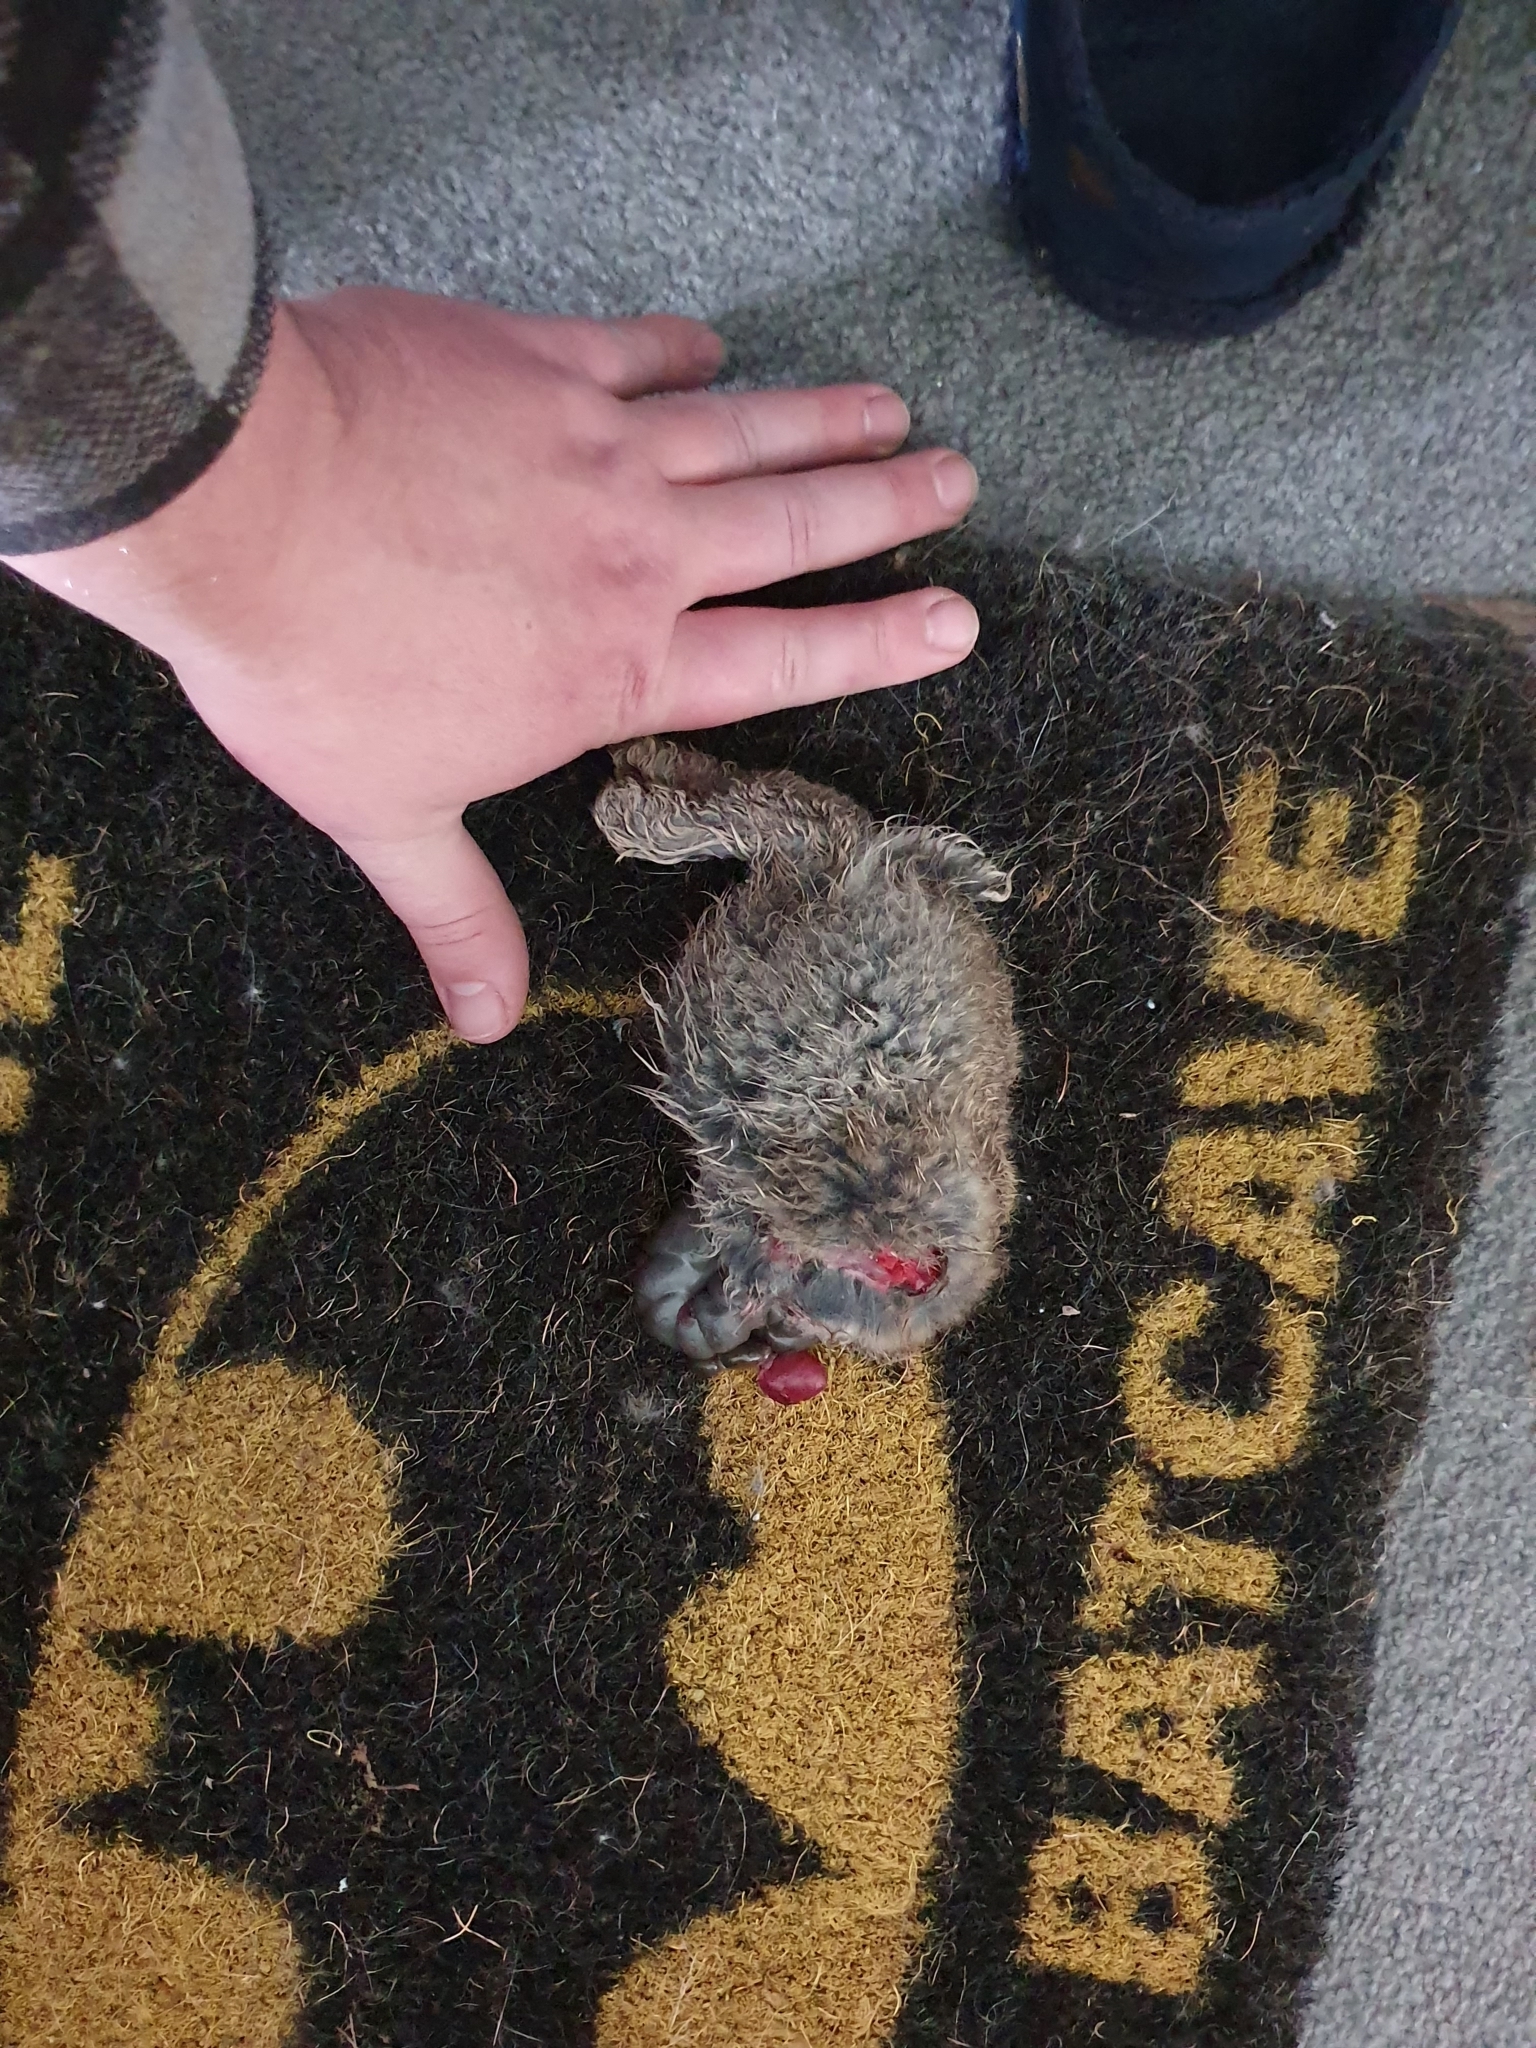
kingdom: Animalia
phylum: Chordata
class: Mammalia
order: Lagomorpha
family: Leporidae
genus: Oryctolagus
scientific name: Oryctolagus cuniculus
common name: European rabbit
